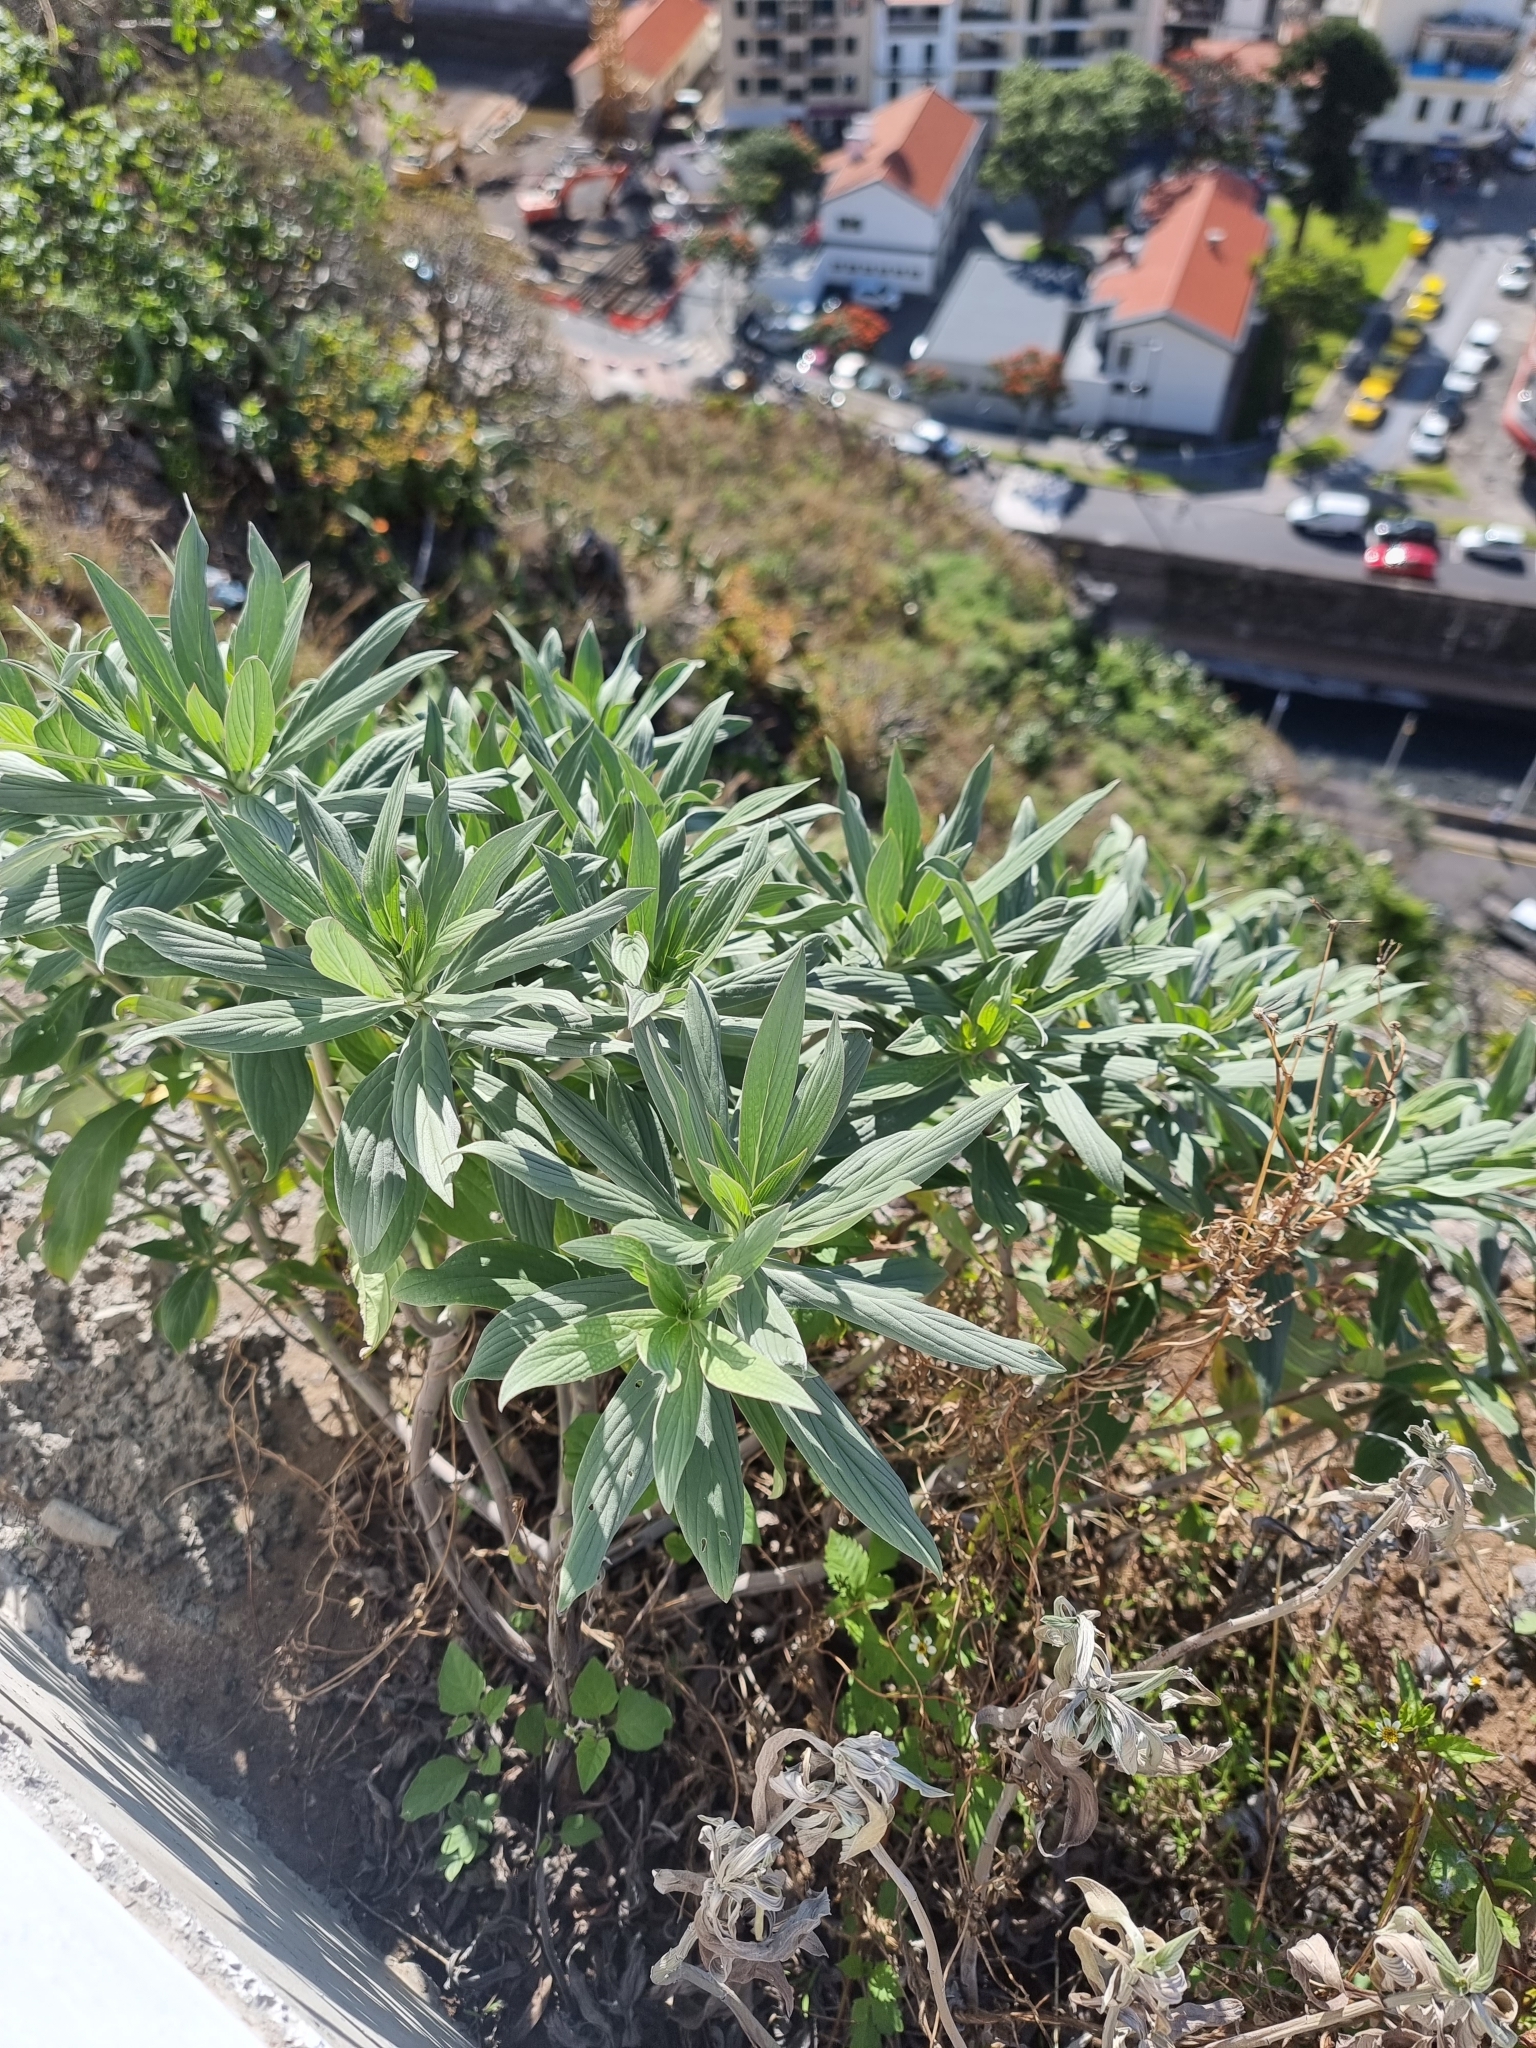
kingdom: Plantae
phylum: Tracheophyta
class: Magnoliopsida
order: Boraginales
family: Boraginaceae
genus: Echium
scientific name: Echium nervosum
